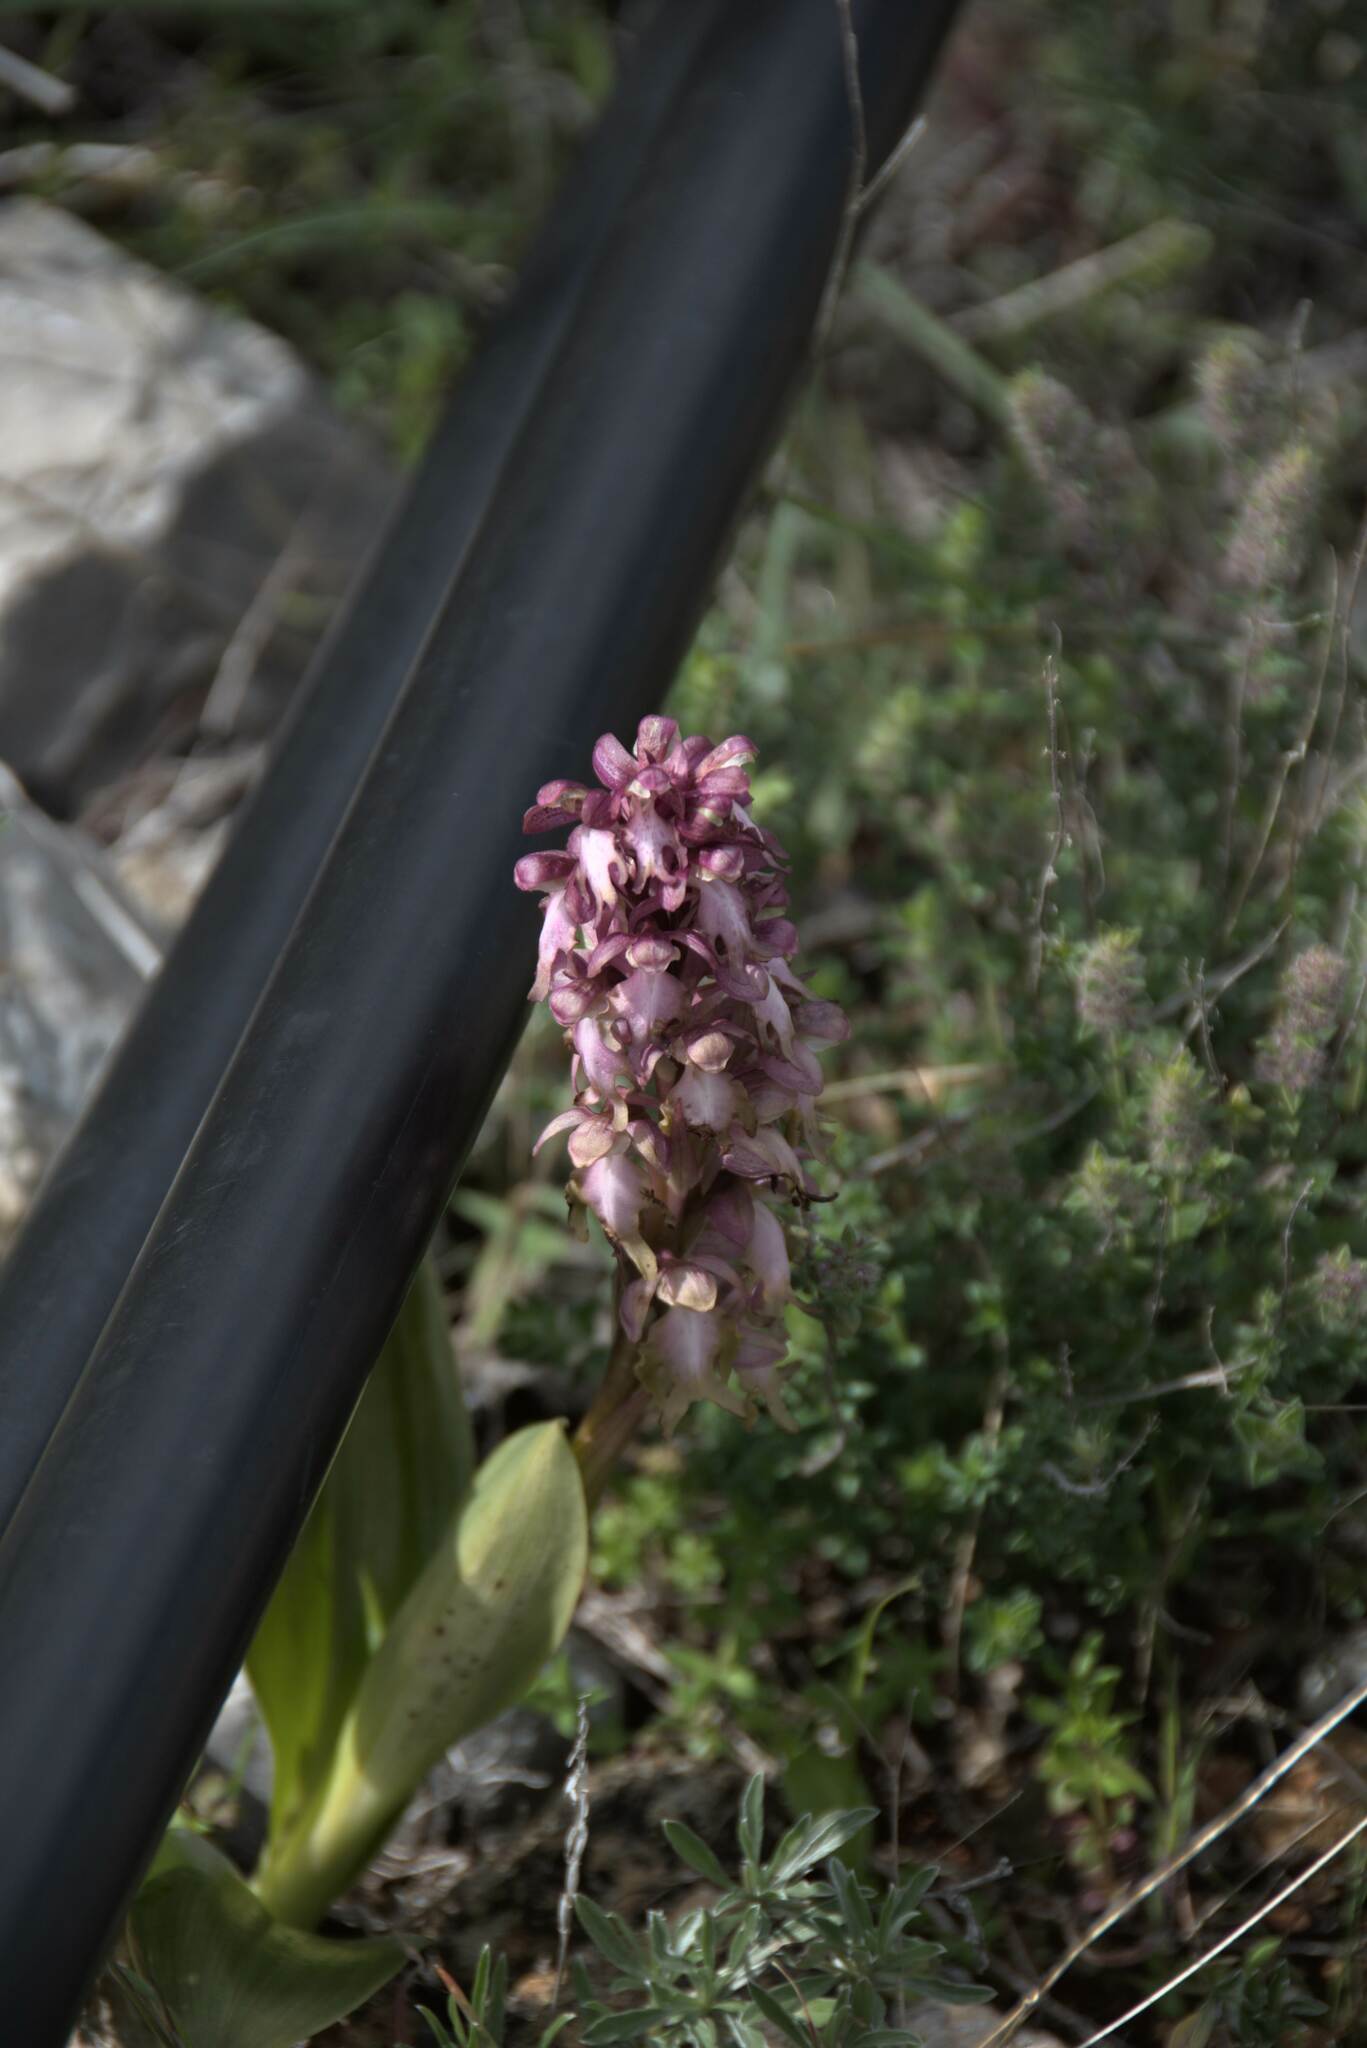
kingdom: Plantae
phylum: Tracheophyta
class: Liliopsida
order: Asparagales
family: Orchidaceae
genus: Himantoglossum
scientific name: Himantoglossum robertianum
